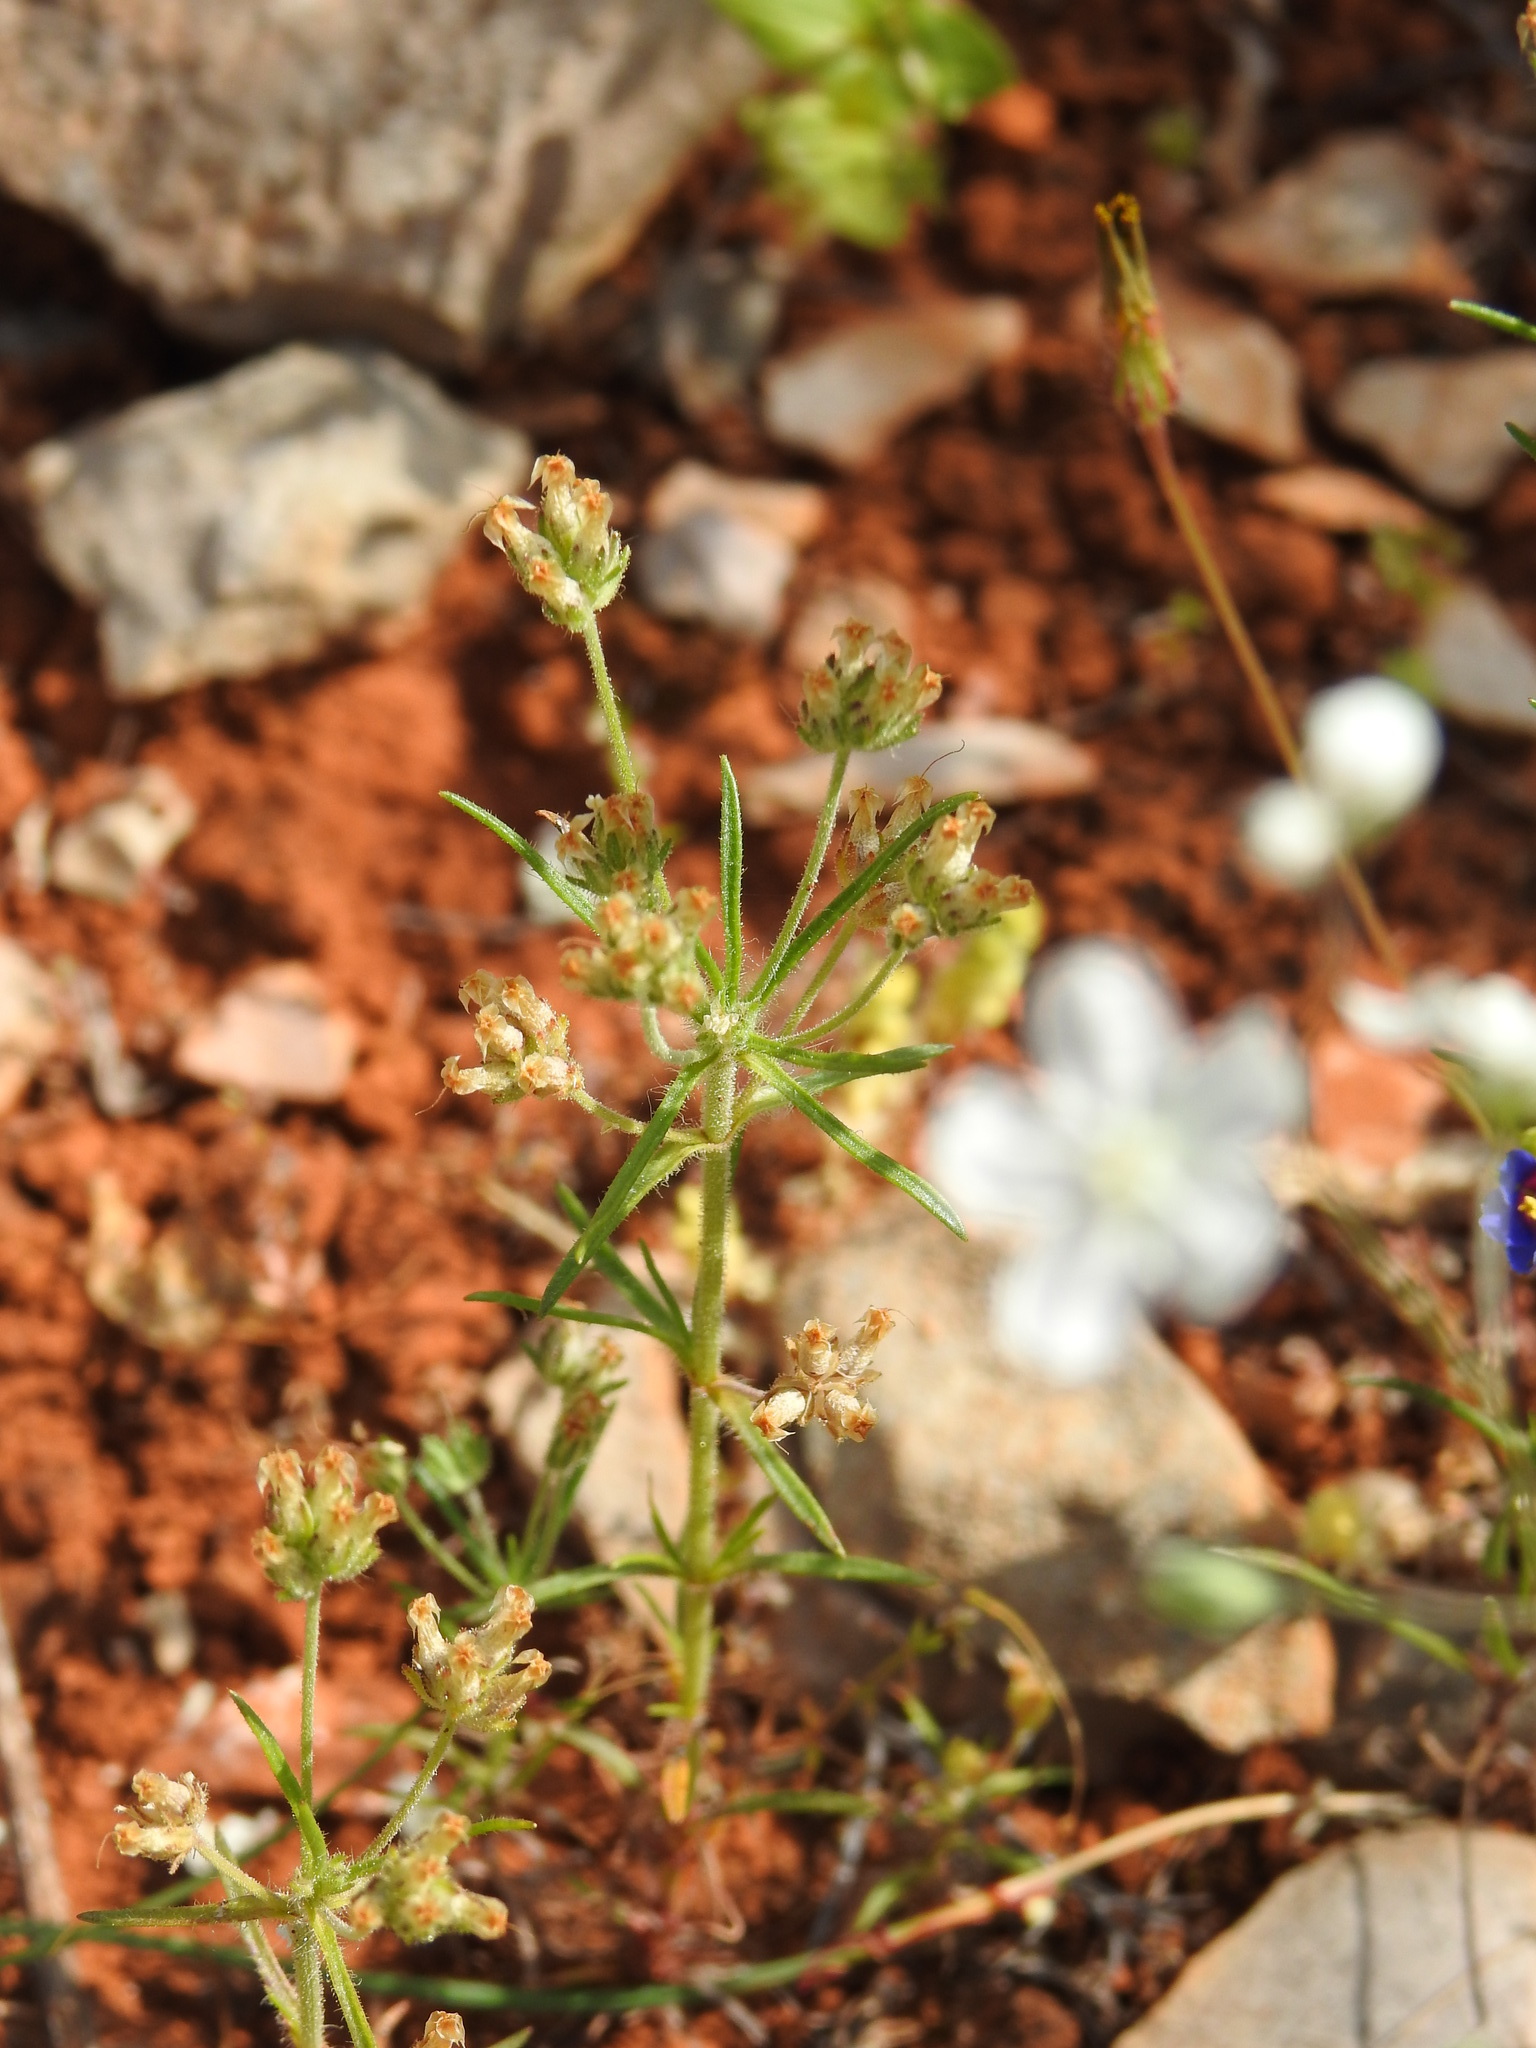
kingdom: Plantae
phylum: Tracheophyta
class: Magnoliopsida
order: Lamiales
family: Plantaginaceae
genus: Plantago
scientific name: Plantago afra
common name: Glandular plantain
